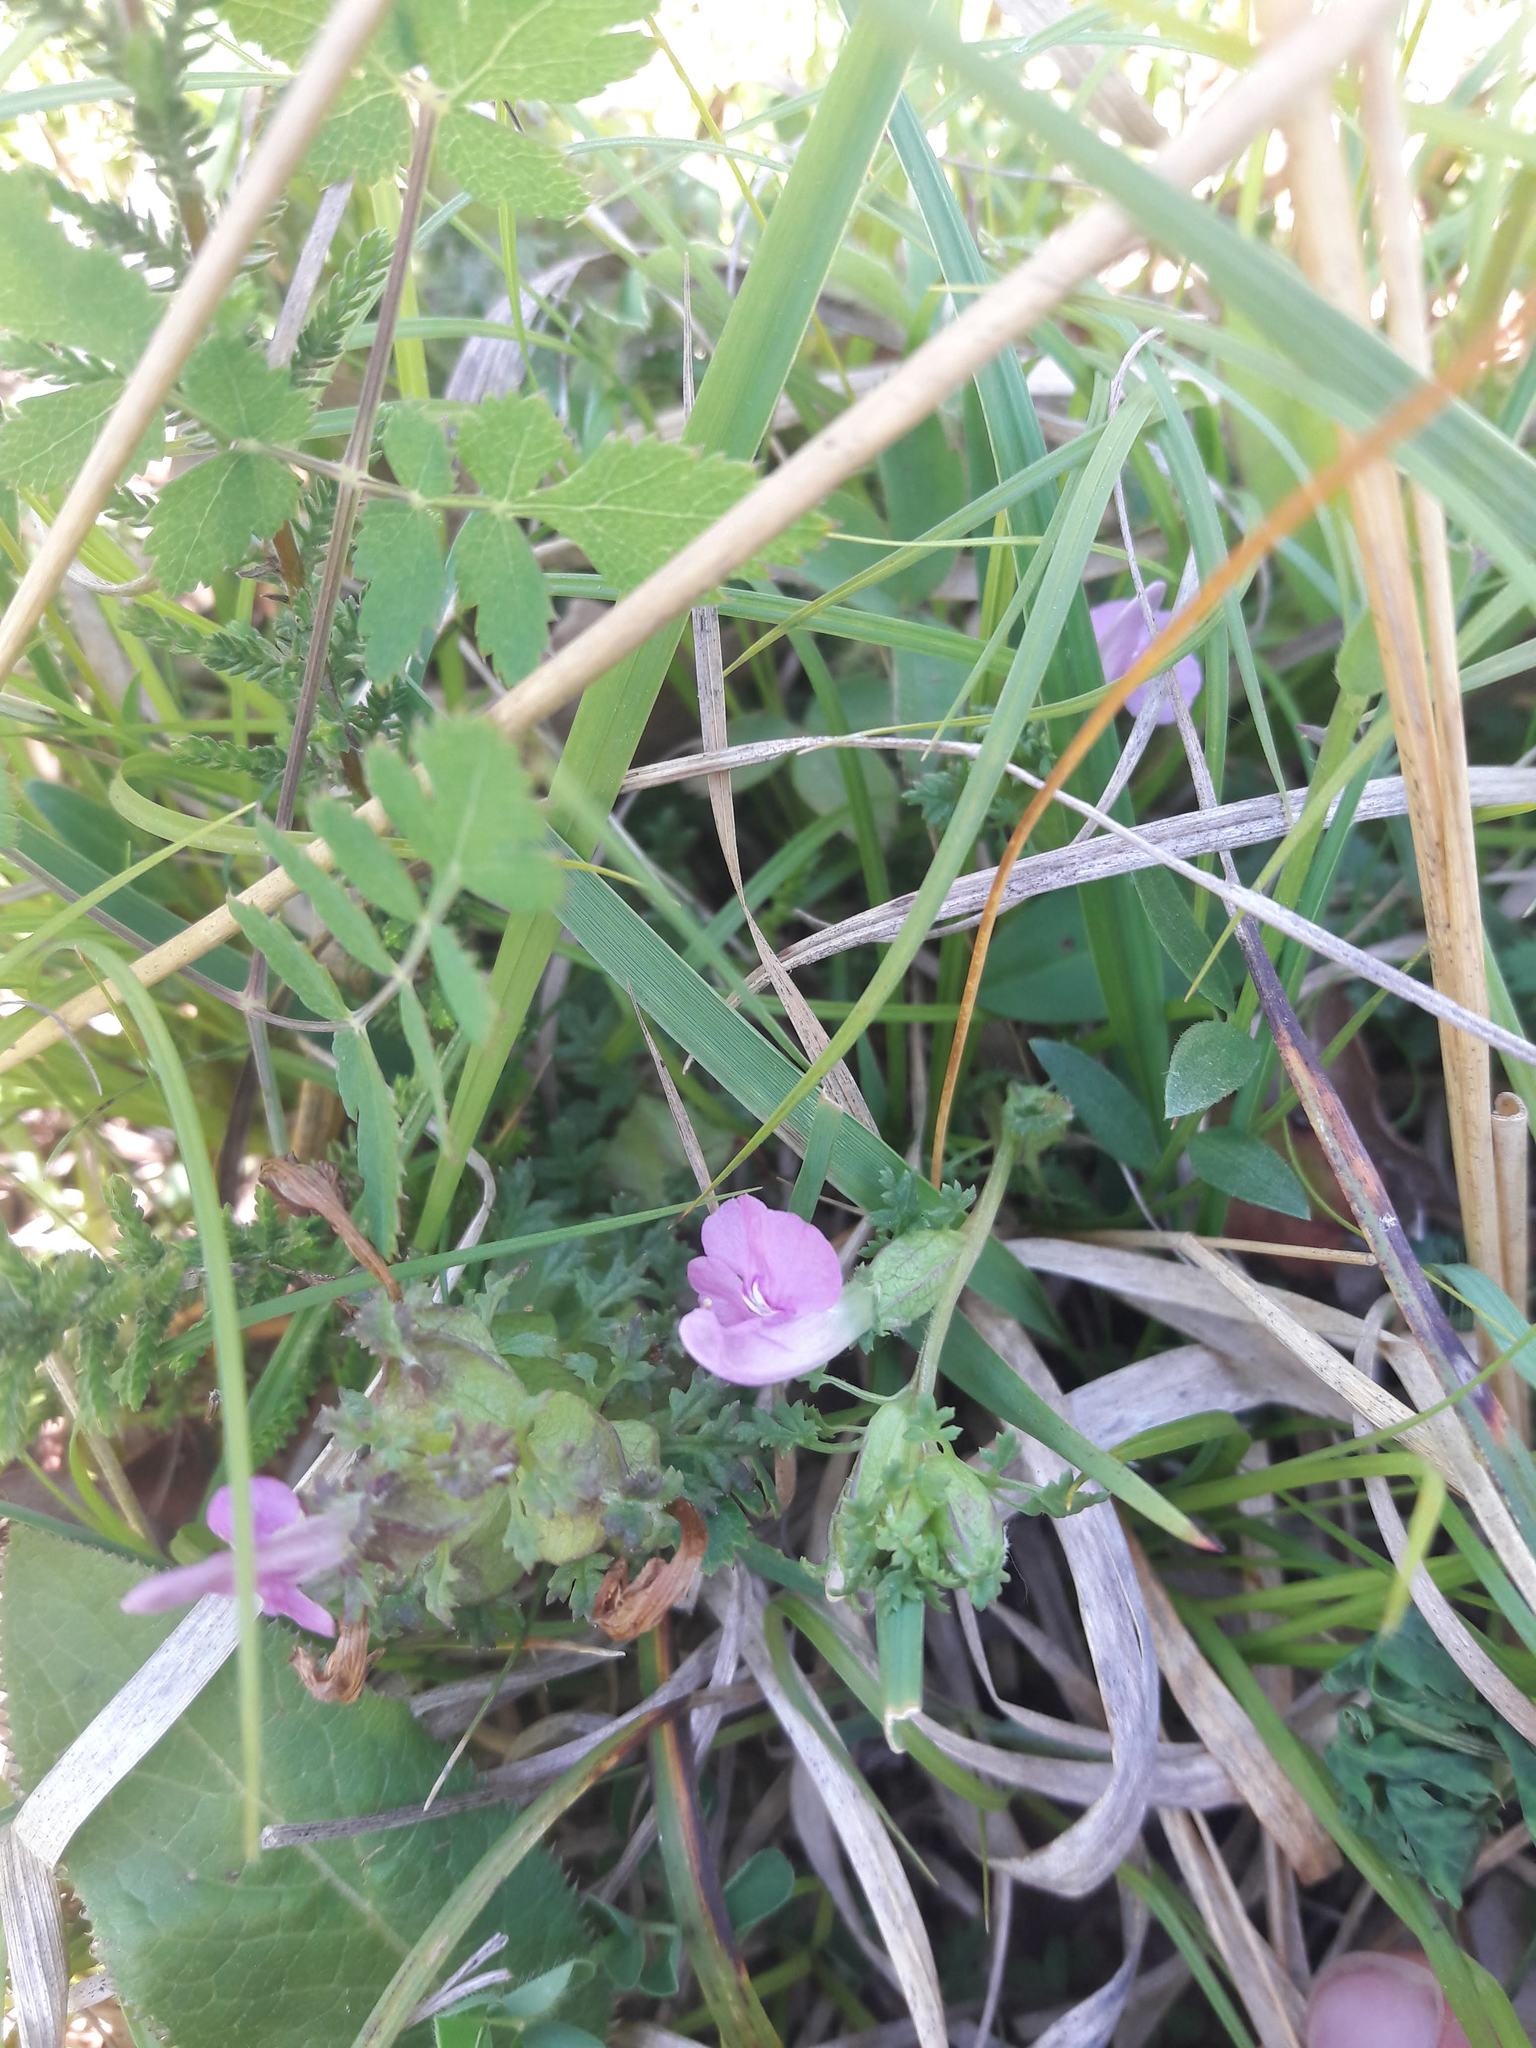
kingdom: Plantae
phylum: Tracheophyta
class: Magnoliopsida
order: Lamiales
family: Orobanchaceae
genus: Pedicularis
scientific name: Pedicularis sylvatica
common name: Lousewort
